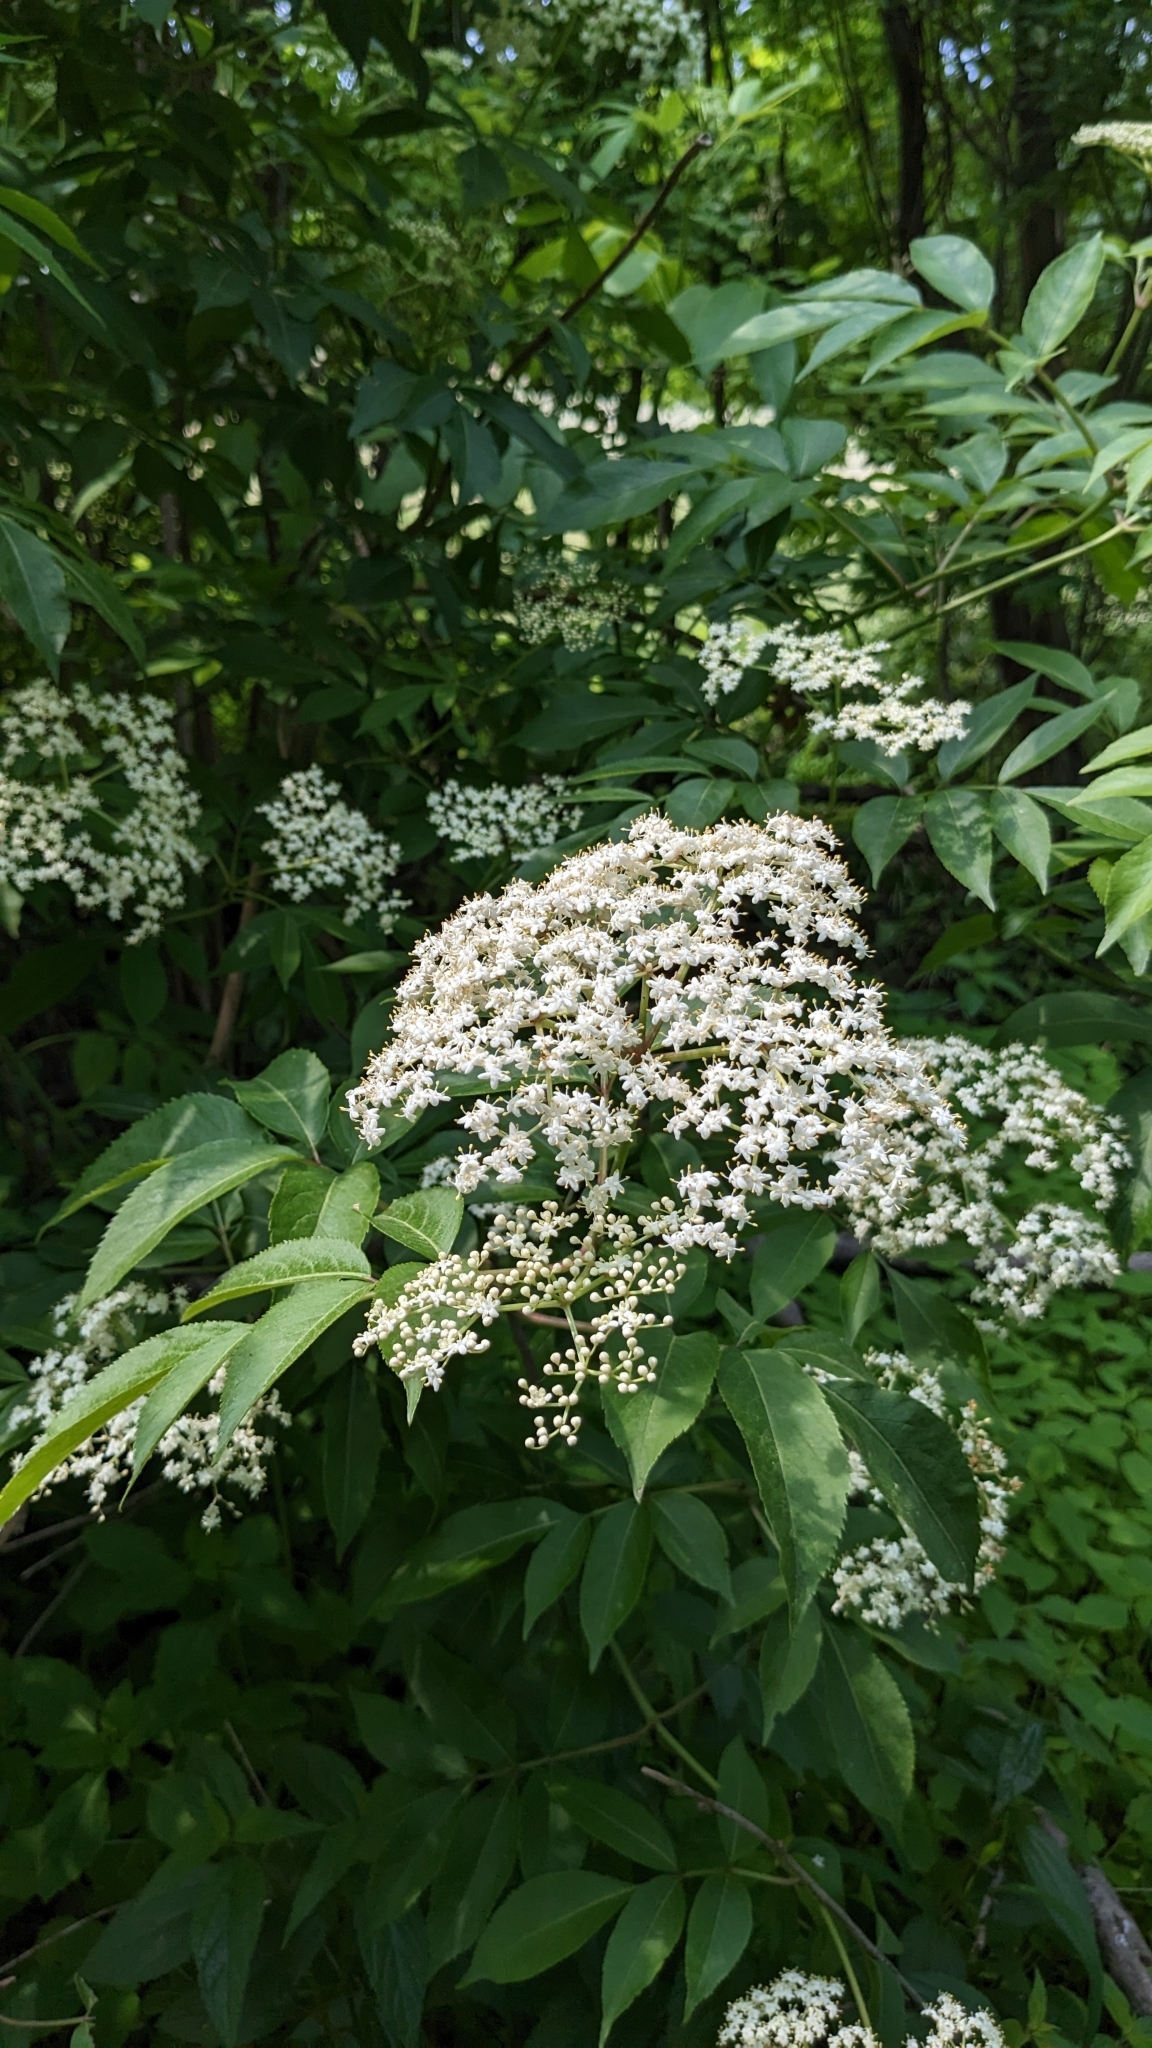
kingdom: Plantae
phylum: Tracheophyta
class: Magnoliopsida
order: Dipsacales
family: Viburnaceae
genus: Sambucus
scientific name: Sambucus canadensis
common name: American elder
